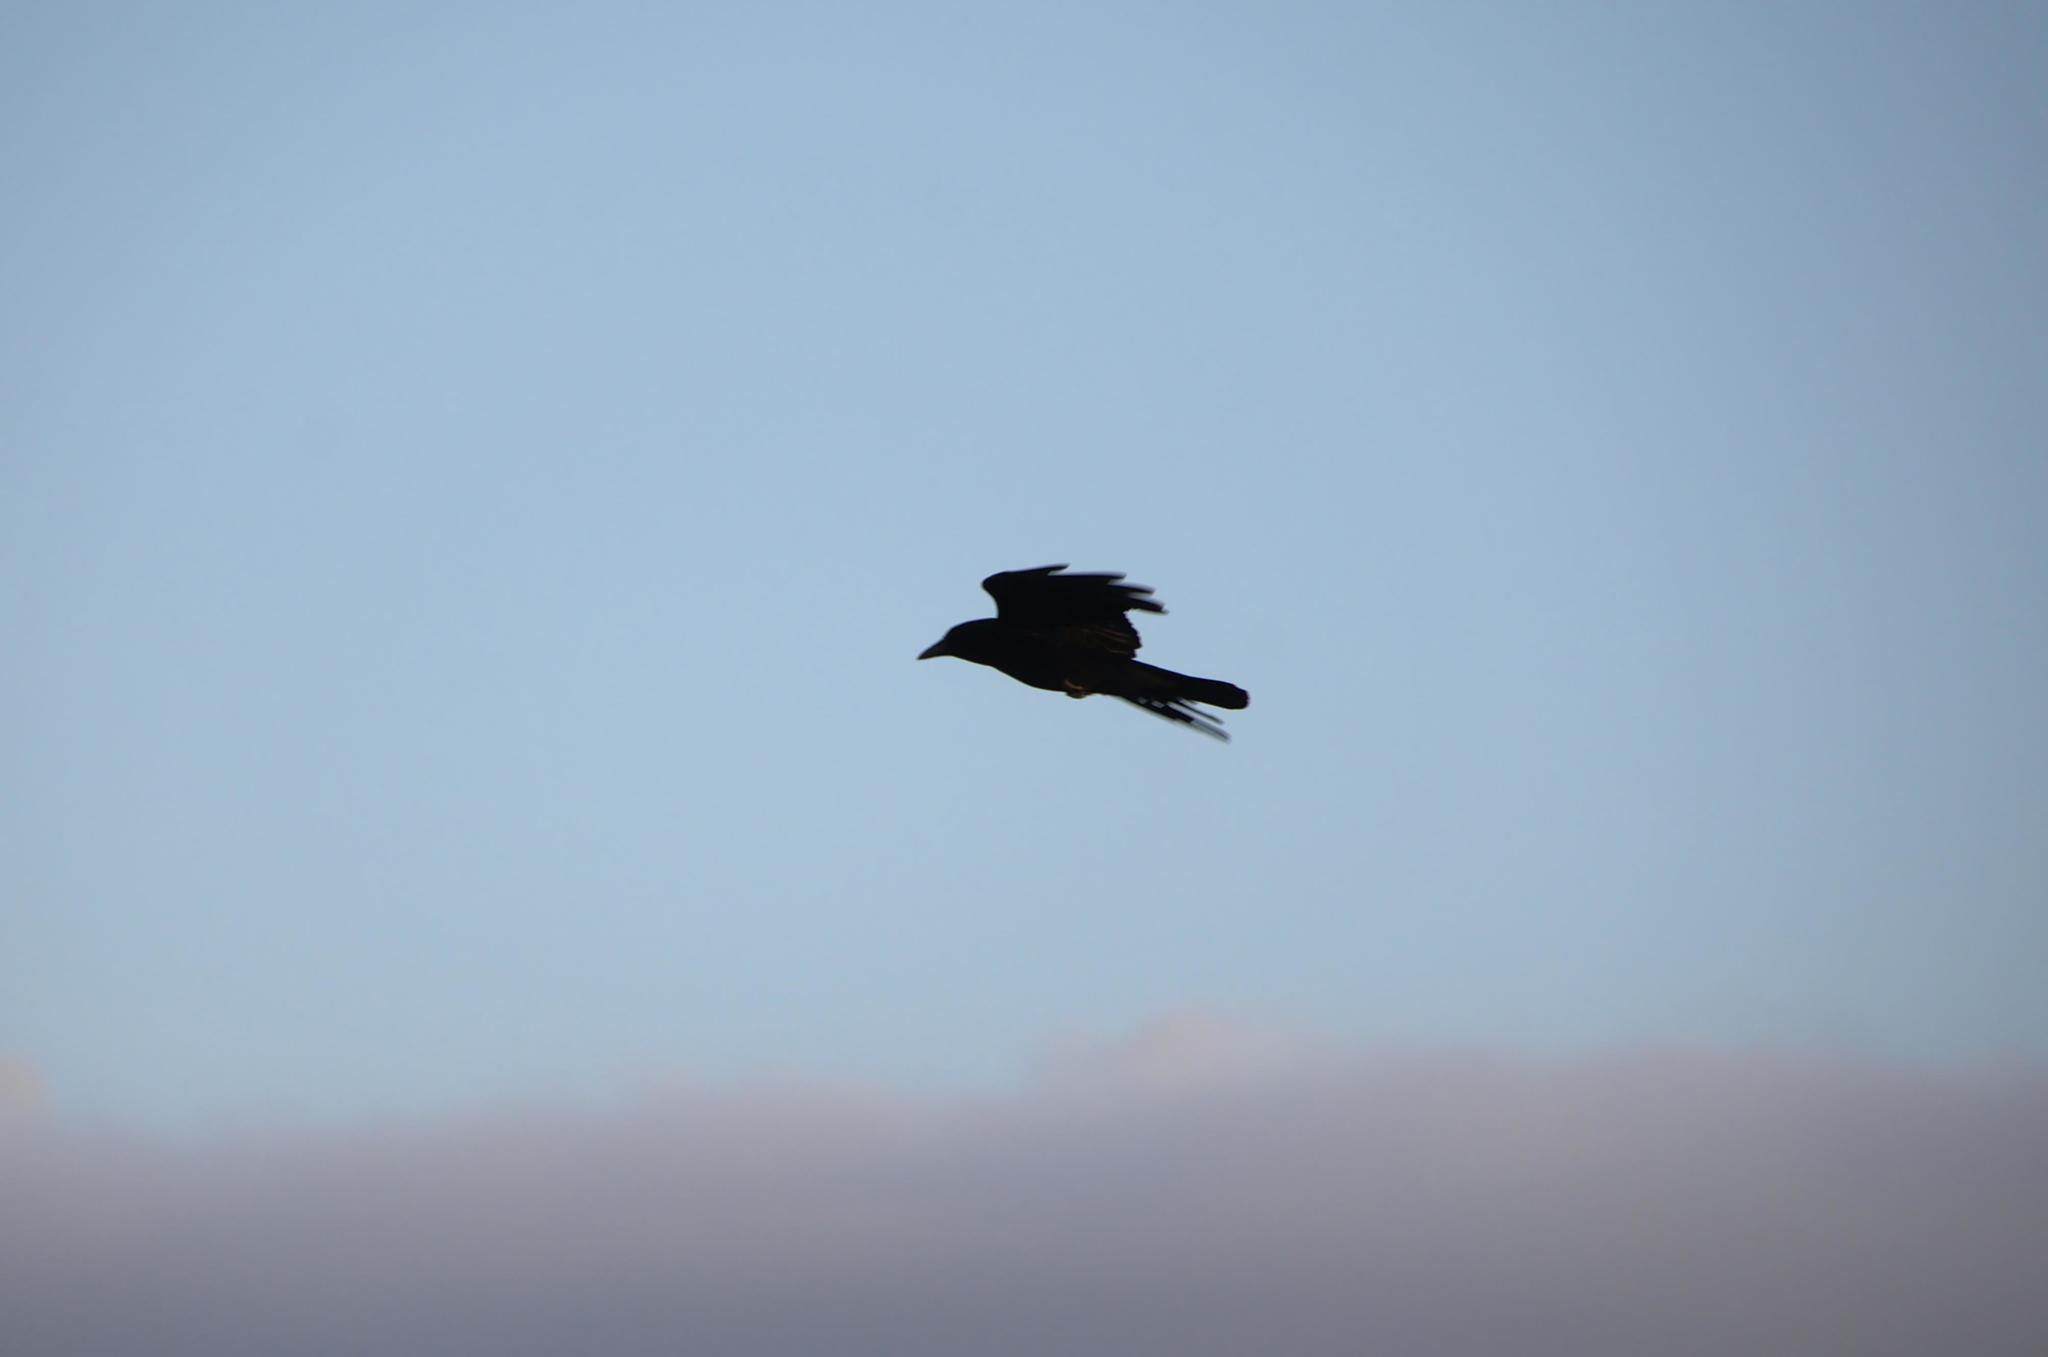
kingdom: Animalia
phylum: Chordata
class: Aves
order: Passeriformes
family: Corvidae
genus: Corvus
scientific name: Corvus corone
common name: Carrion crow
